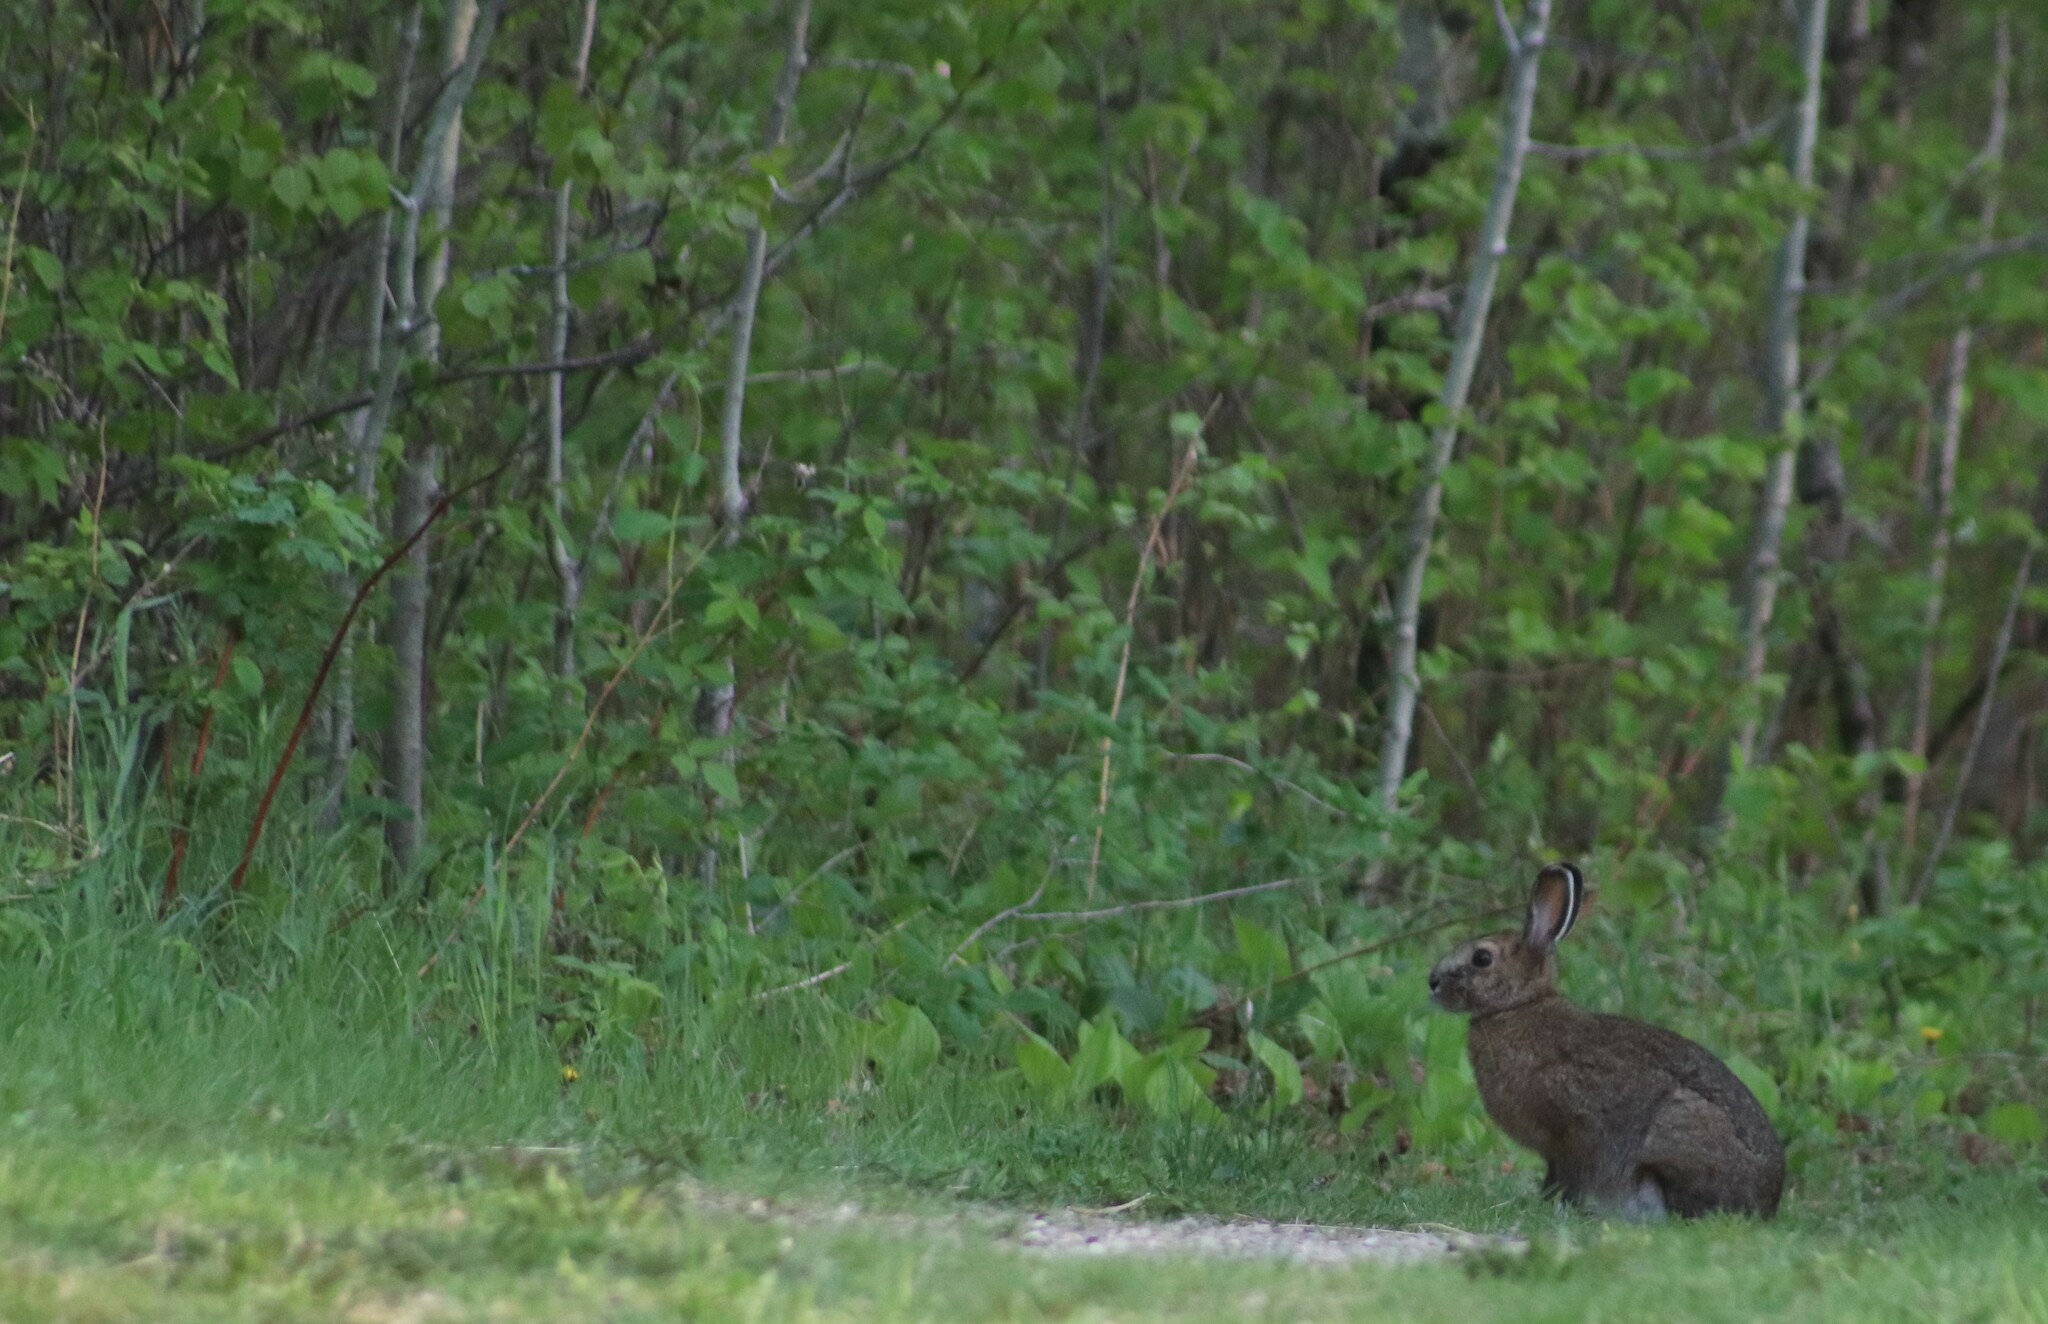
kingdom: Animalia
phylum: Chordata
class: Mammalia
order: Lagomorpha
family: Leporidae
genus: Lepus
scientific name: Lepus americanus
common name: Snowshoe hare
